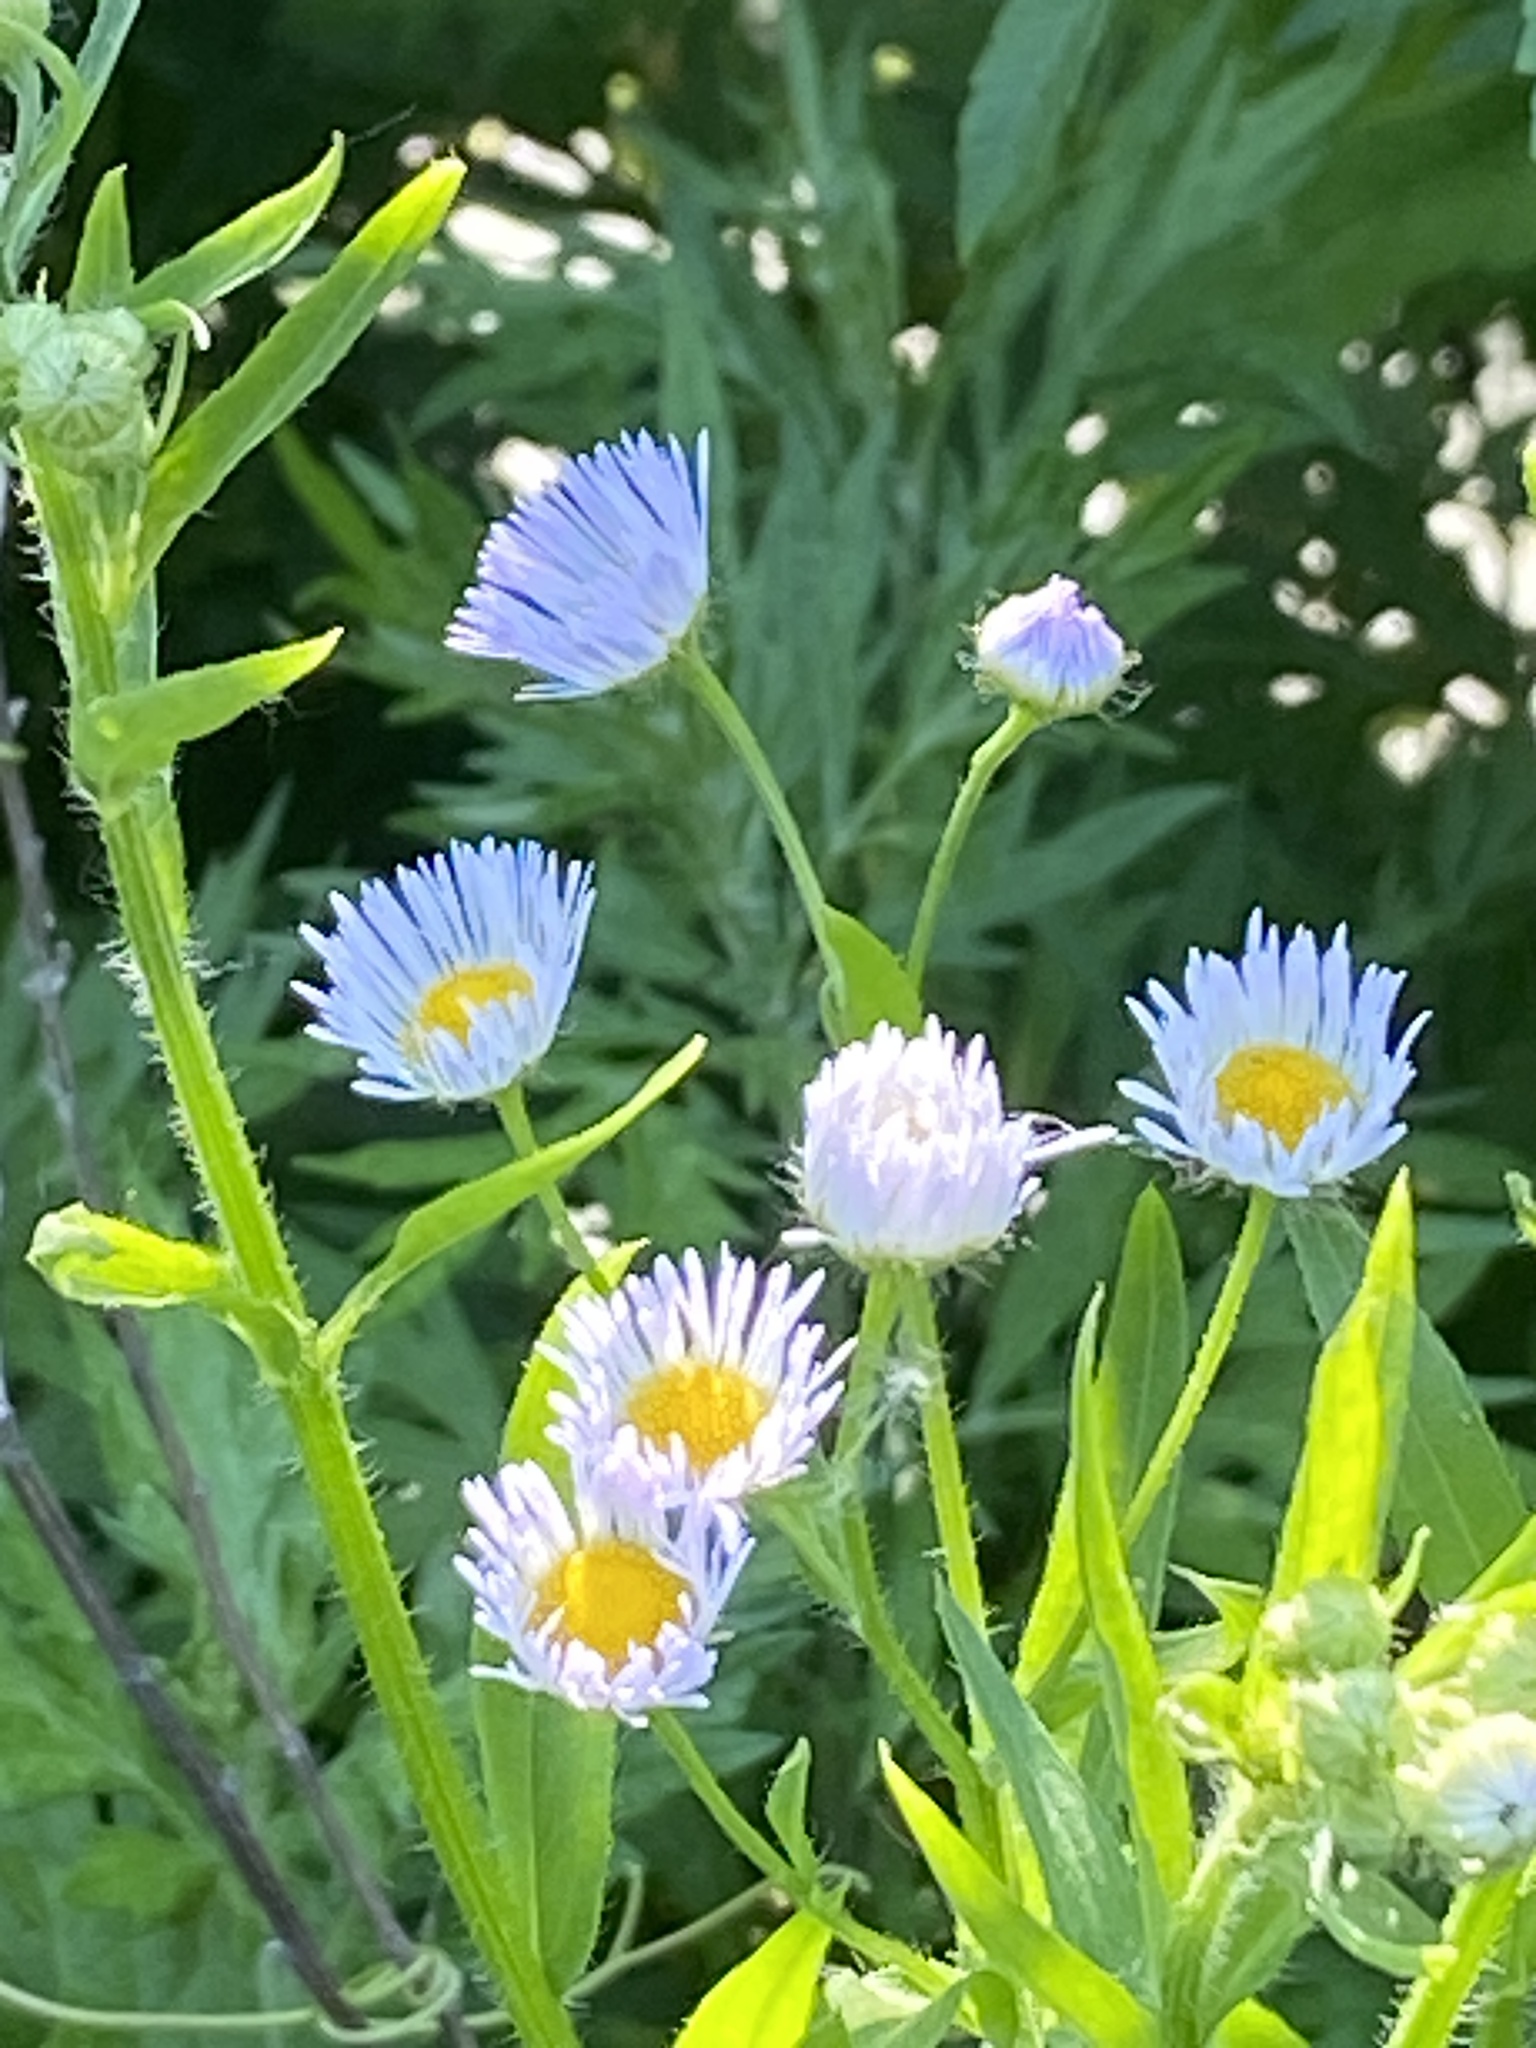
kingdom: Plantae
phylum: Tracheophyta
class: Magnoliopsida
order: Asterales
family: Asteraceae
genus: Erigeron
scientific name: Erigeron annuus
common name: Tall fleabane
